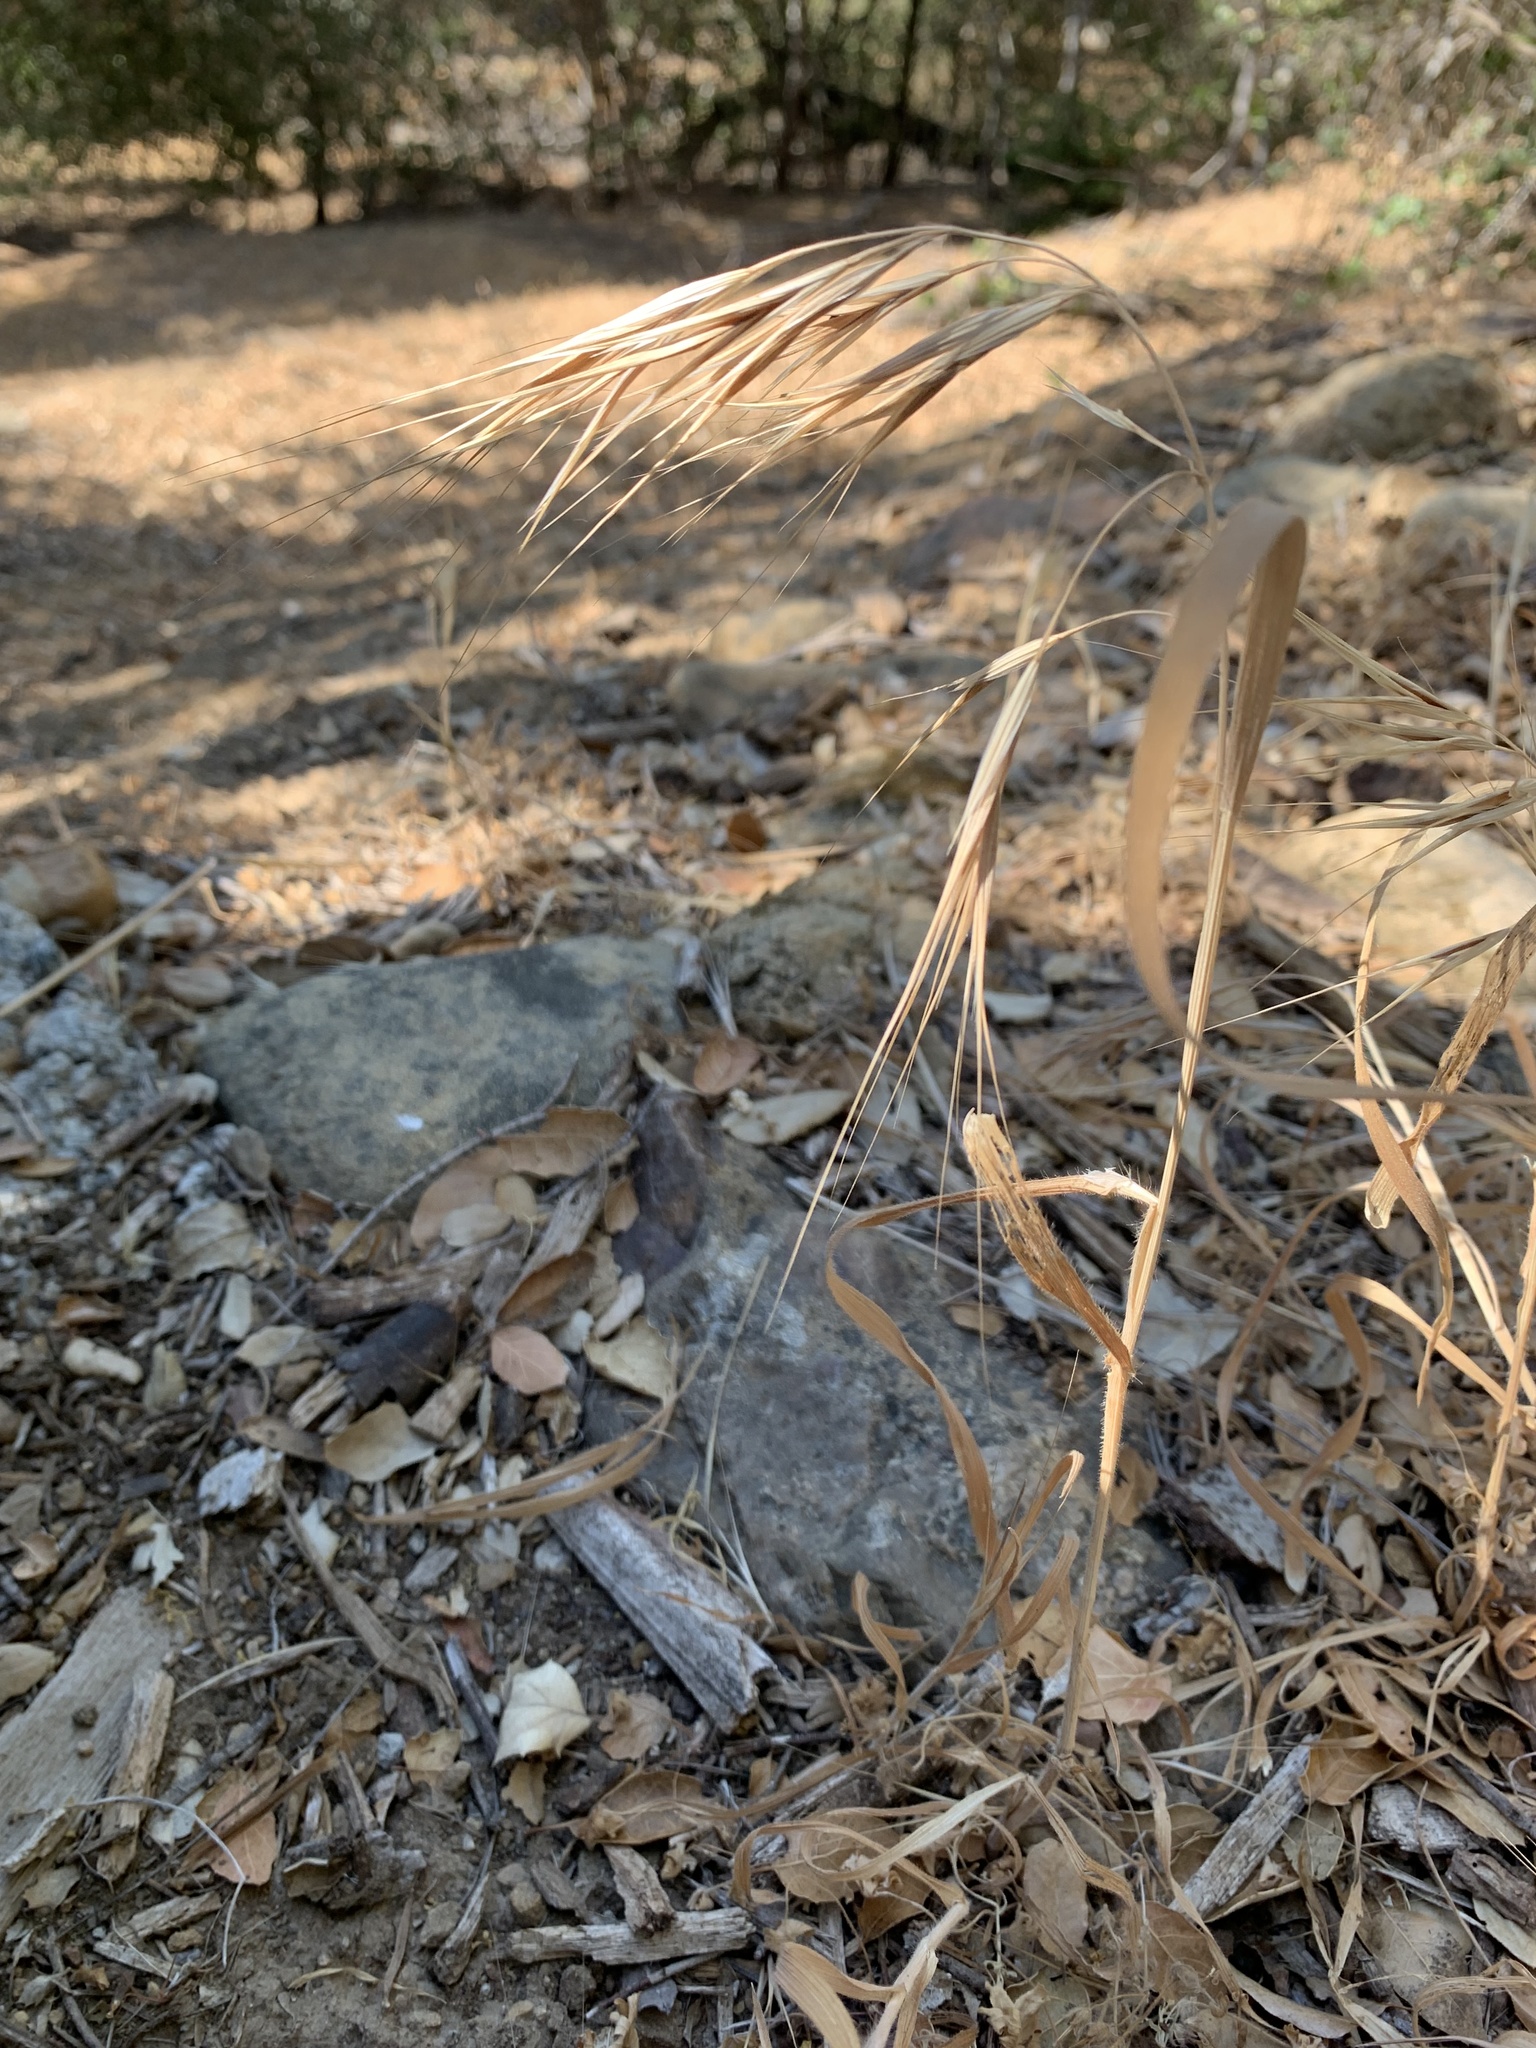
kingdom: Plantae
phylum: Tracheophyta
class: Liliopsida
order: Poales
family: Poaceae
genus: Bromus
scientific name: Bromus diandrus
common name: Ripgut brome
